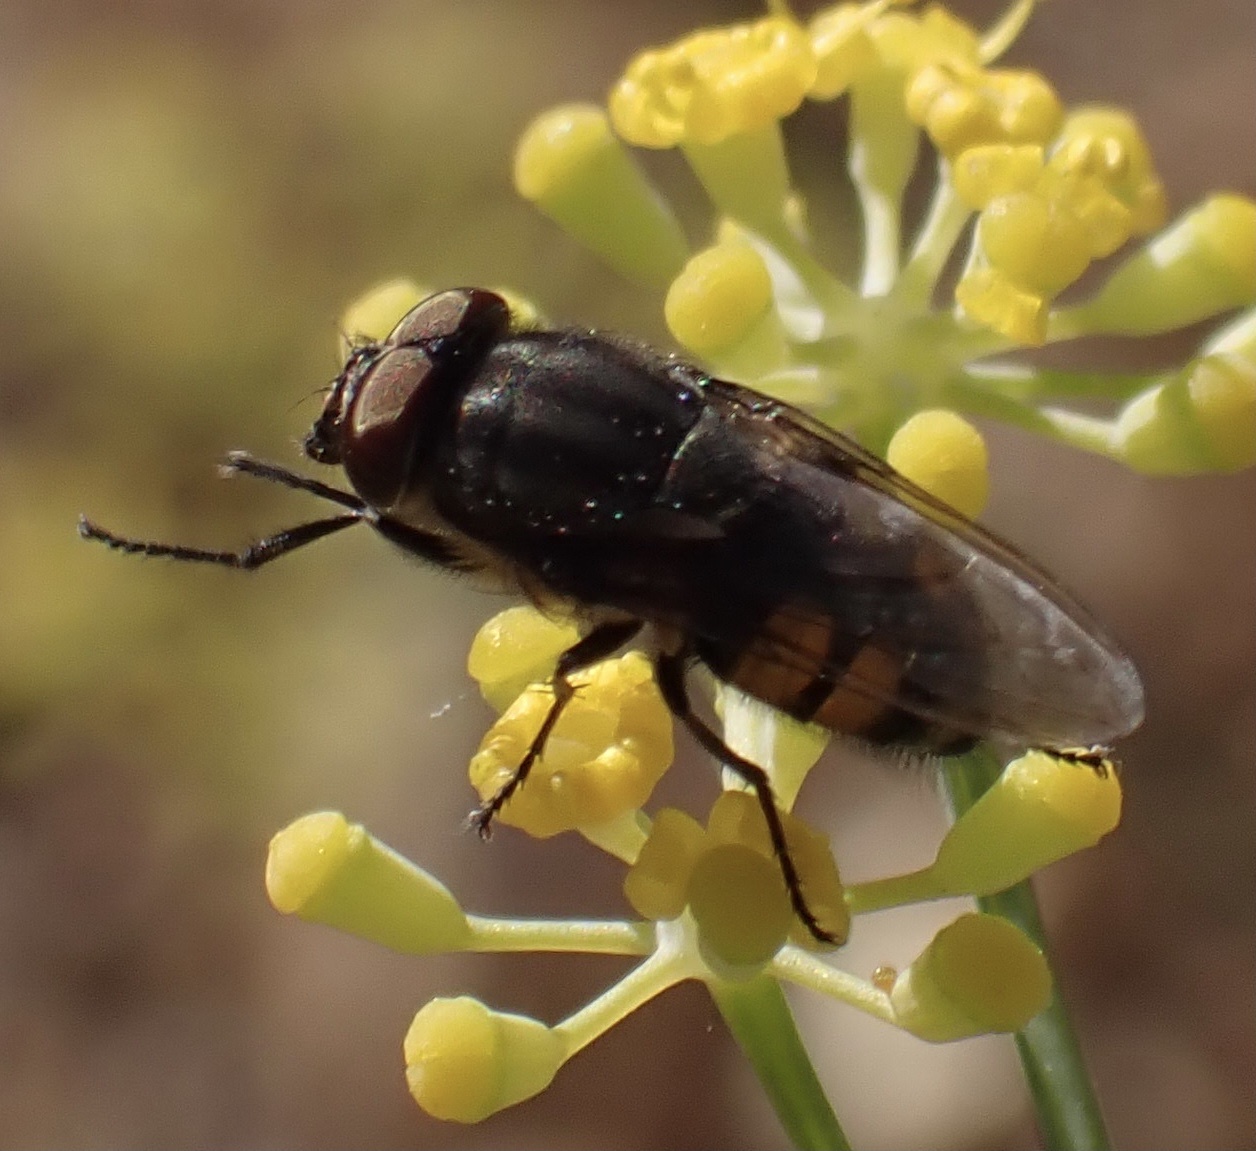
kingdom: Animalia
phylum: Arthropoda
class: Insecta
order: Diptera
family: Calliphoridae
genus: Stomorhina
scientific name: Stomorhina lunata
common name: Locust blowfly
